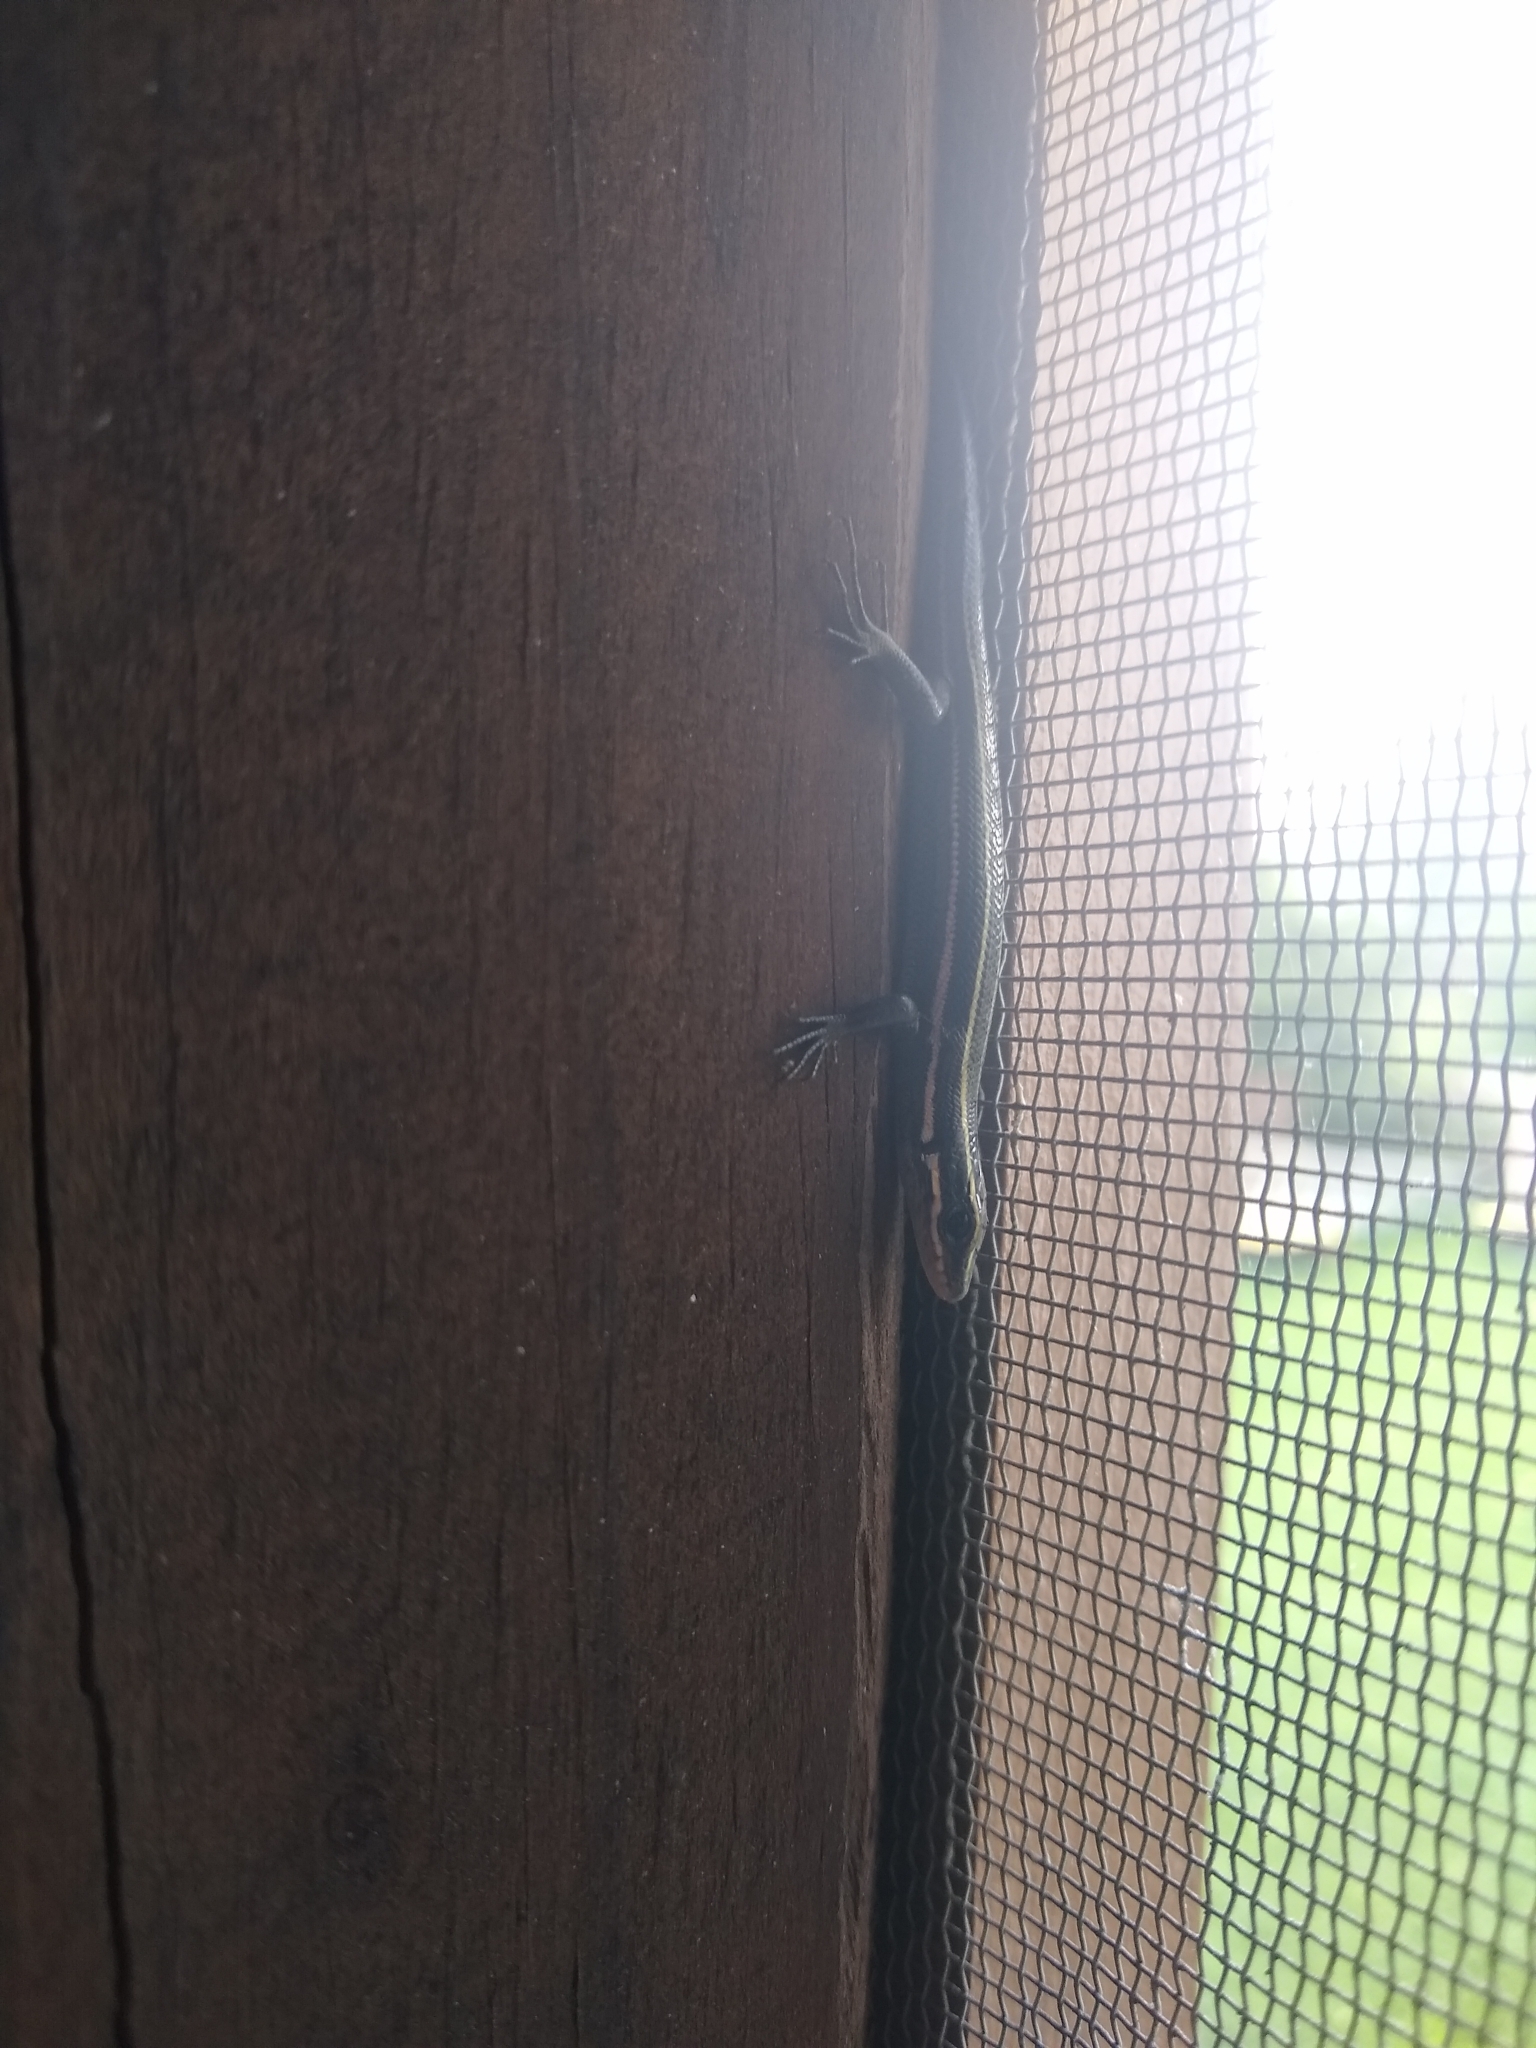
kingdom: Animalia
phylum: Chordata
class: Squamata
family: Scincidae
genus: Plestiodon
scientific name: Plestiodon fasciatus
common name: Five-lined skink
